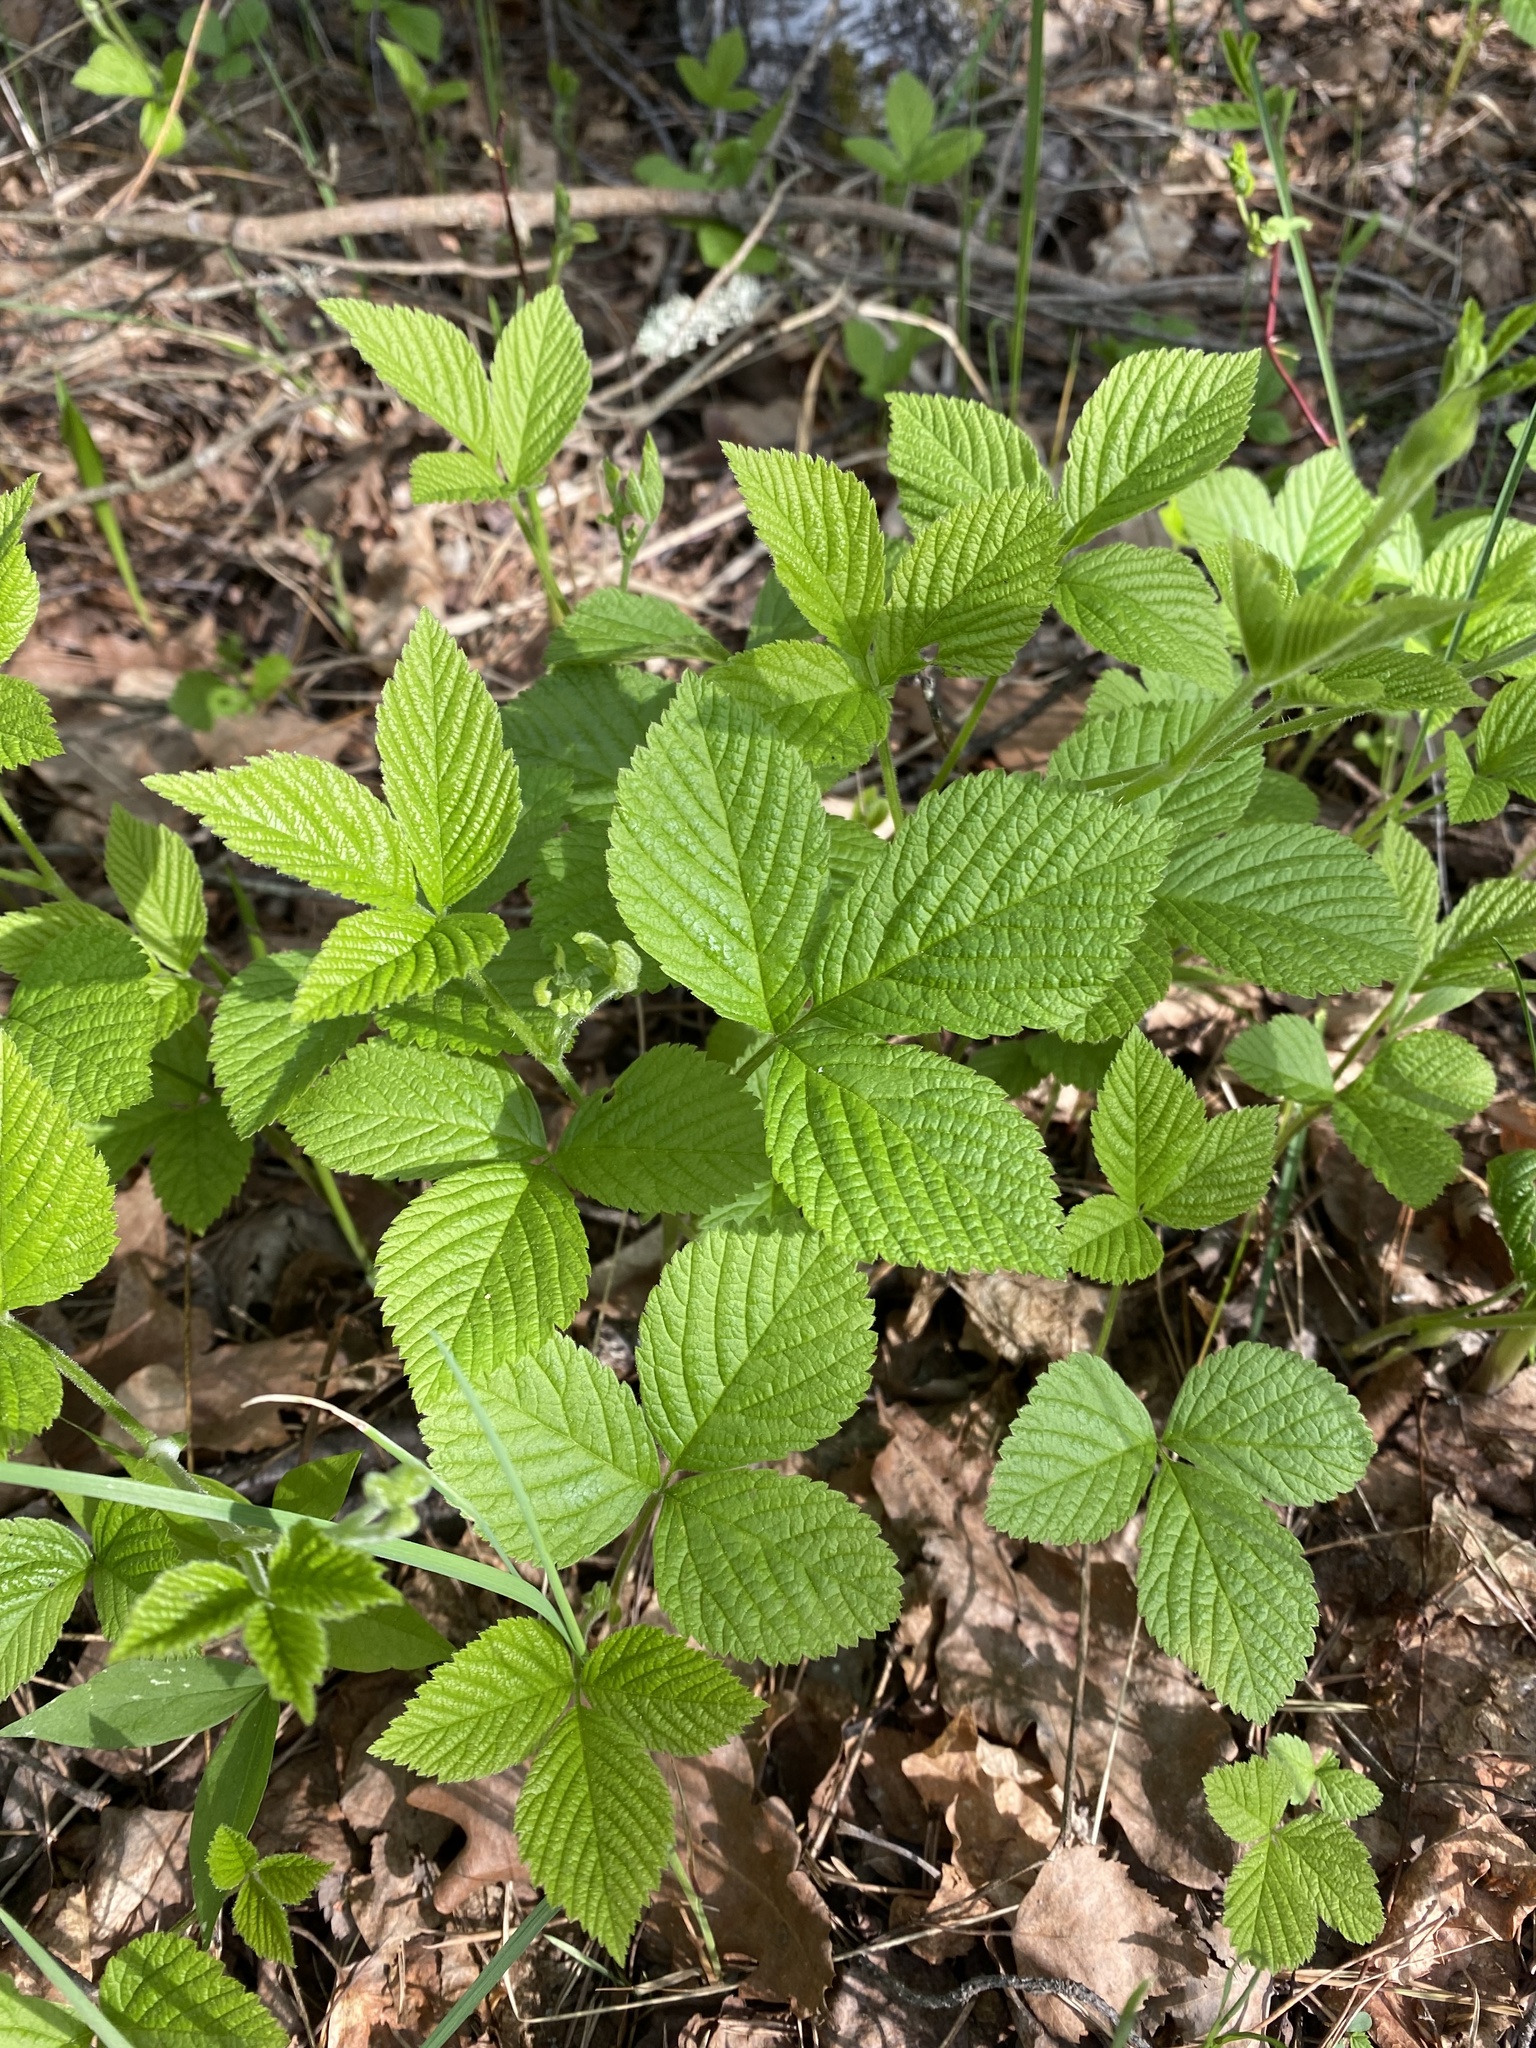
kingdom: Plantae
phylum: Tracheophyta
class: Magnoliopsida
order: Rosales
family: Rosaceae
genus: Rubus
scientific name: Rubus saxatilis
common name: Stone bramble
